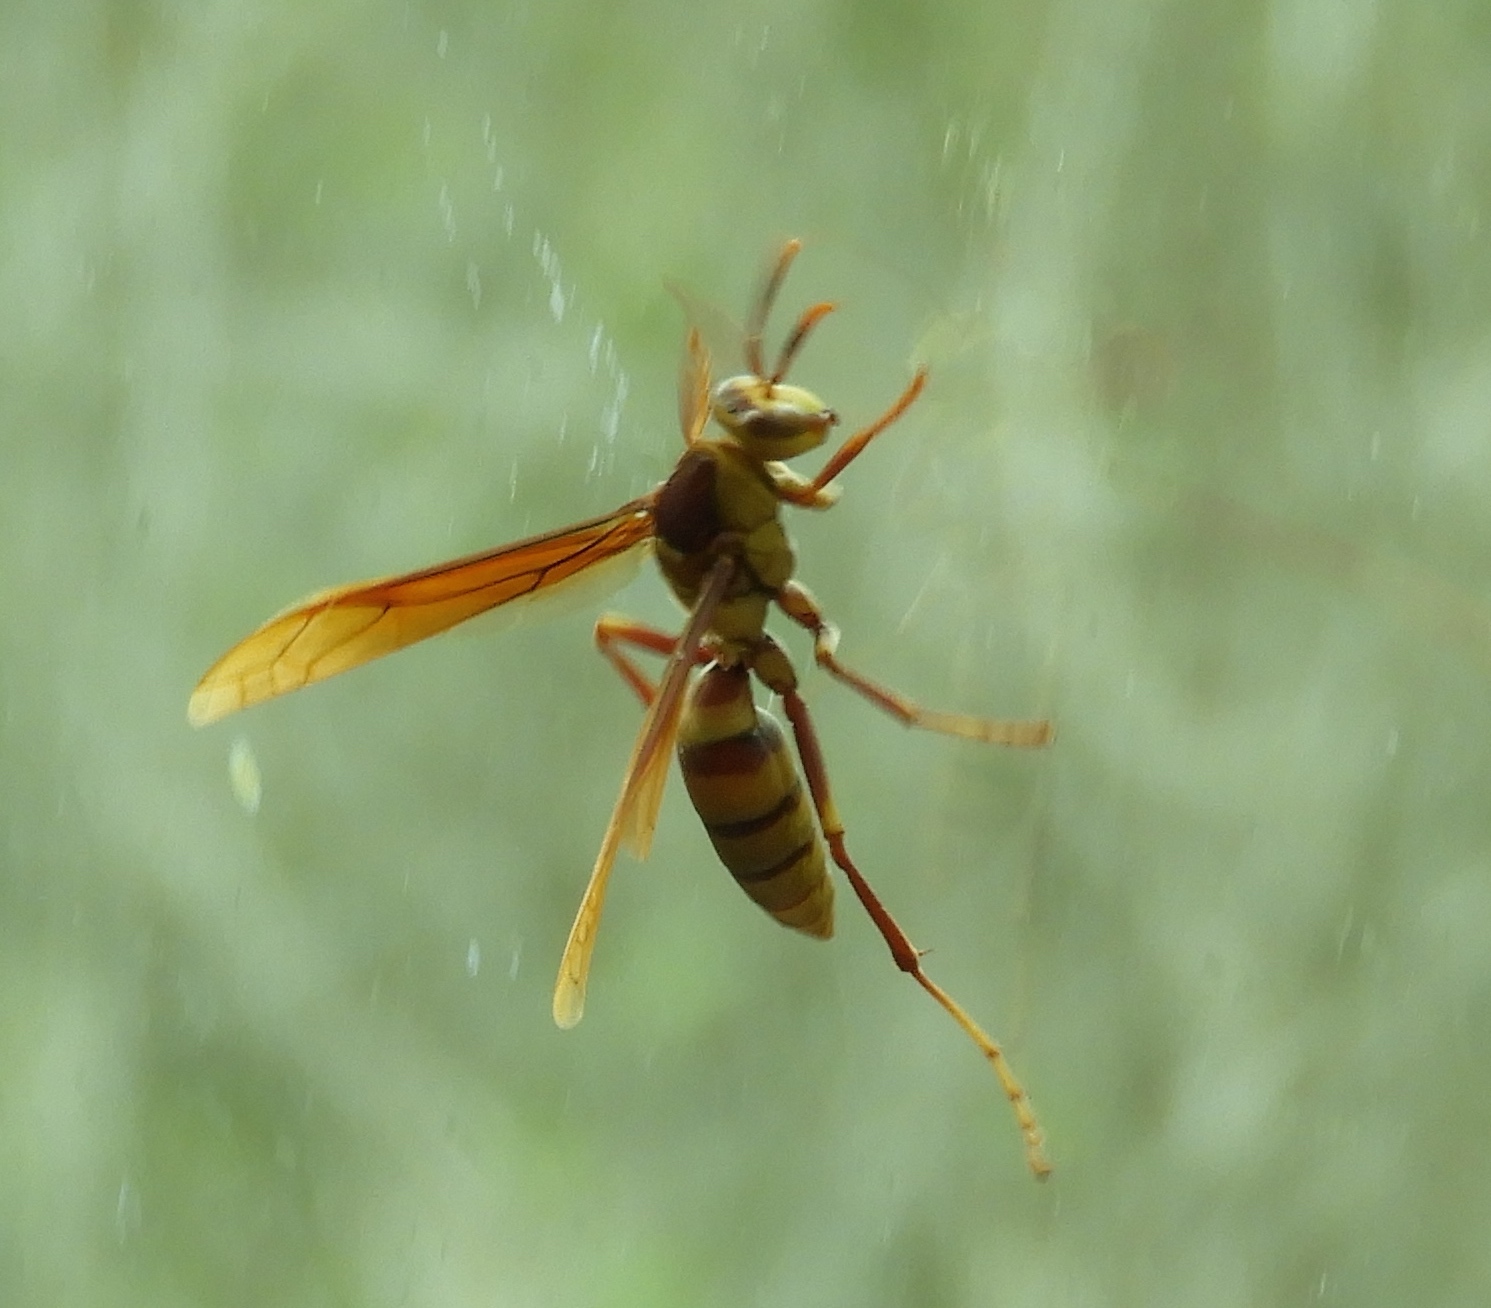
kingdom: Animalia
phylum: Arthropoda
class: Insecta
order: Hymenoptera
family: Eumenidae
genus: Polistes
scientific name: Polistes major
